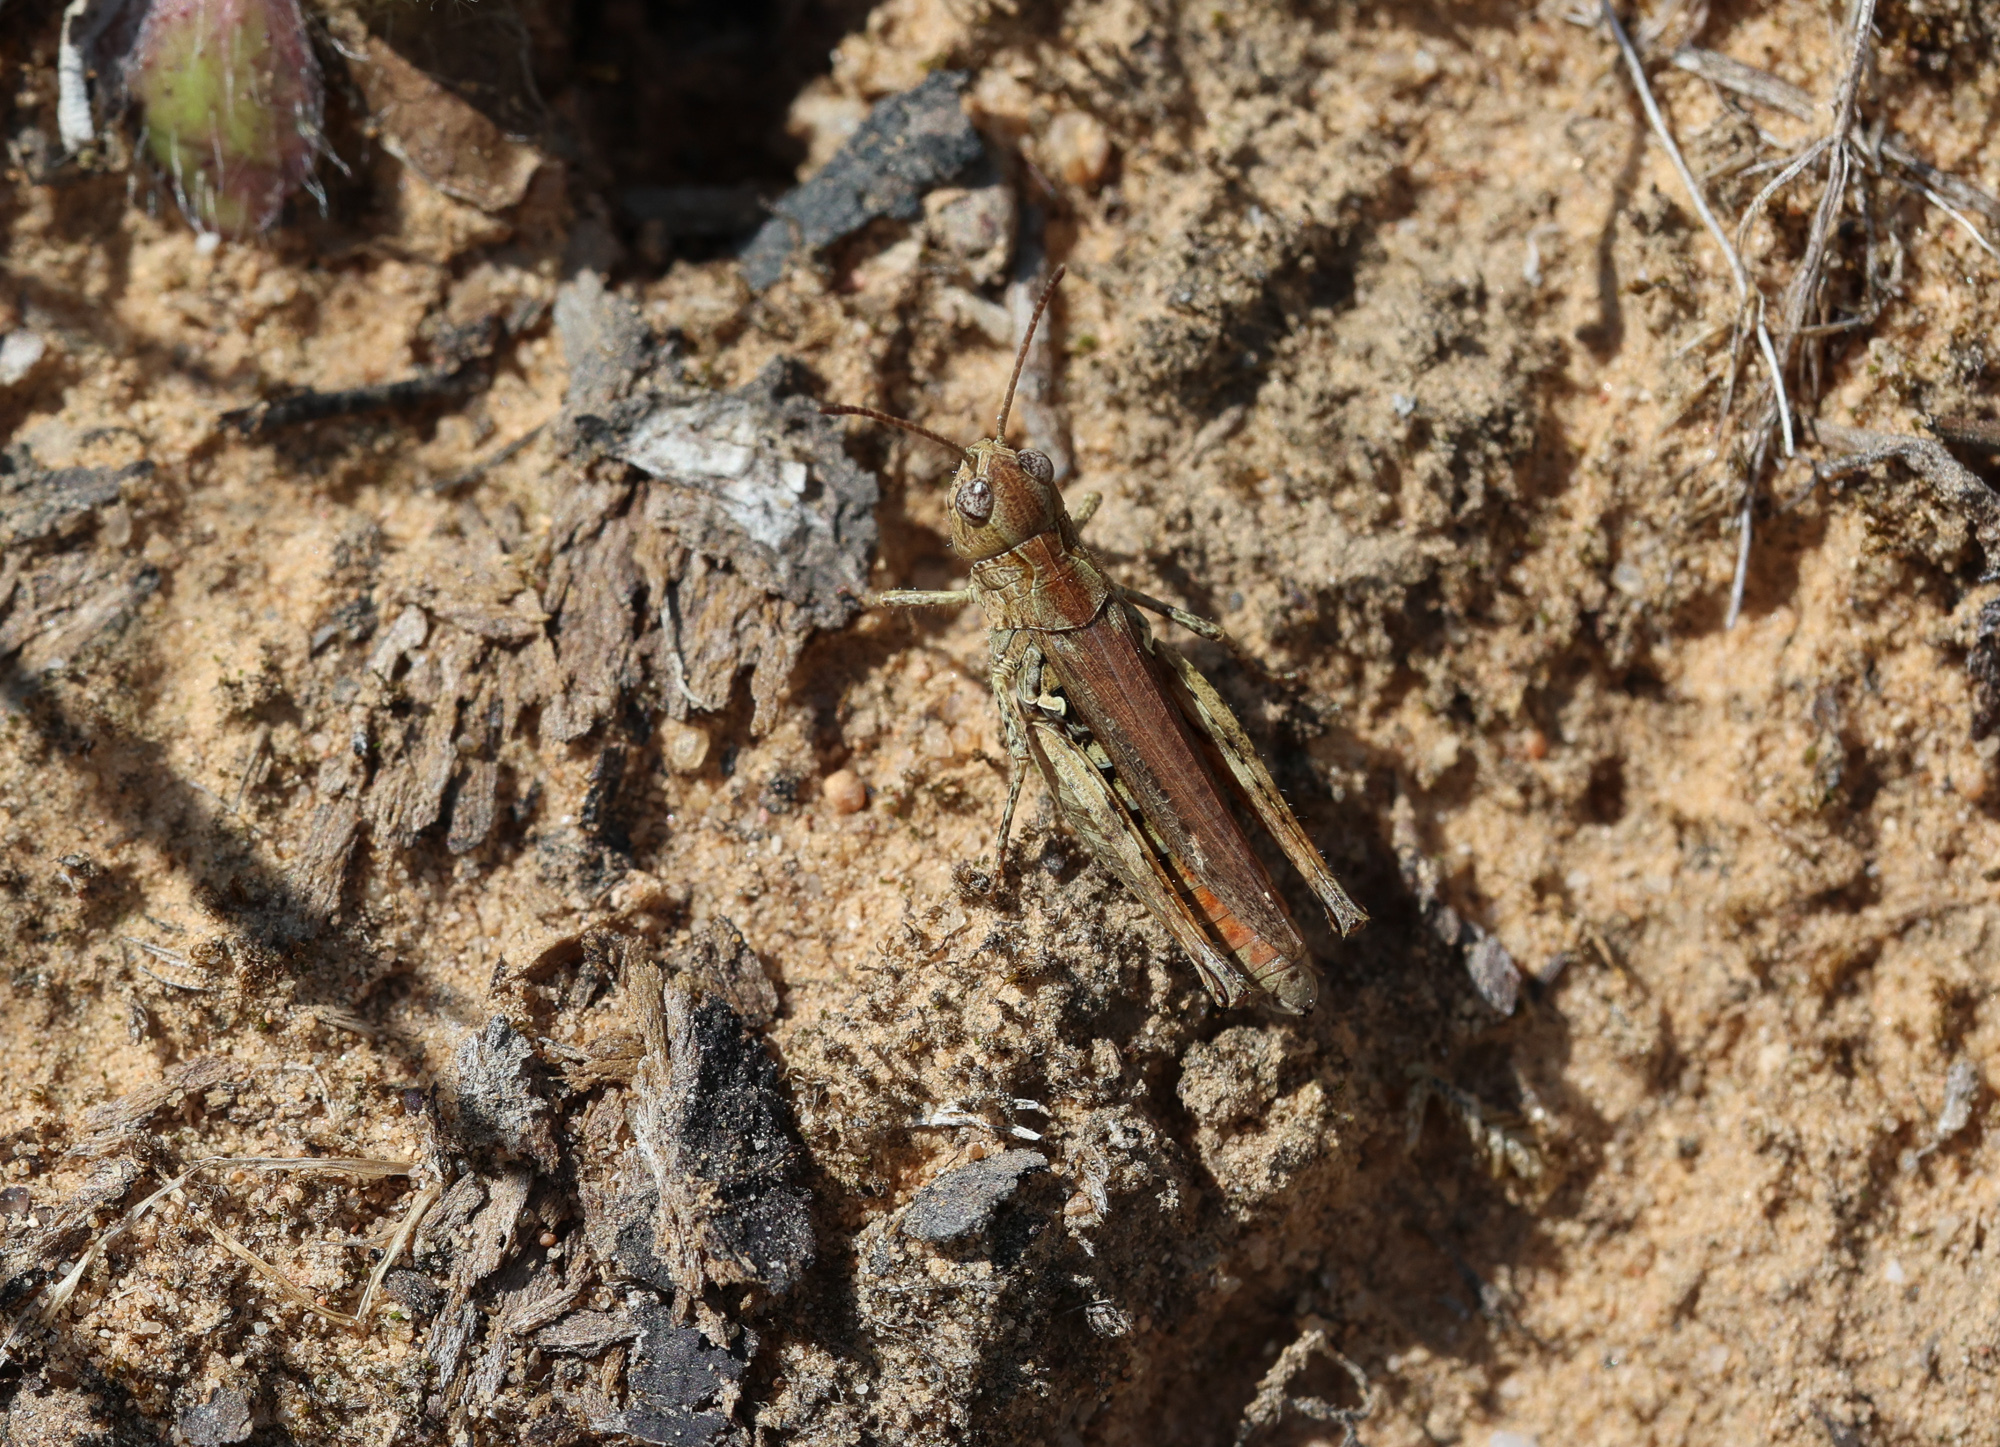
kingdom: Animalia
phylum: Arthropoda
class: Insecta
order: Orthoptera
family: Acrididae
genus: Myrmeleotettix
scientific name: Myrmeleotettix maculatus
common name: Mottled grasshopper
